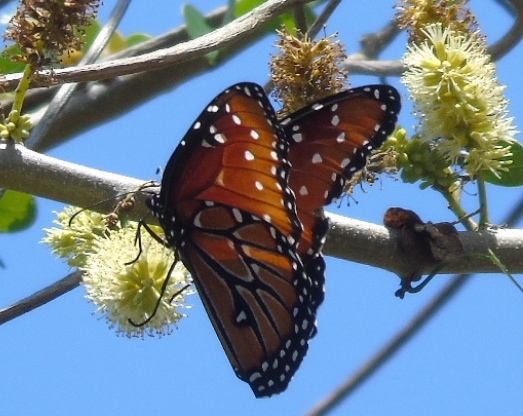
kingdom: Animalia
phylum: Arthropoda
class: Insecta
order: Lepidoptera
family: Nymphalidae
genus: Danaus
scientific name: Danaus gilippus
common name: Queen
